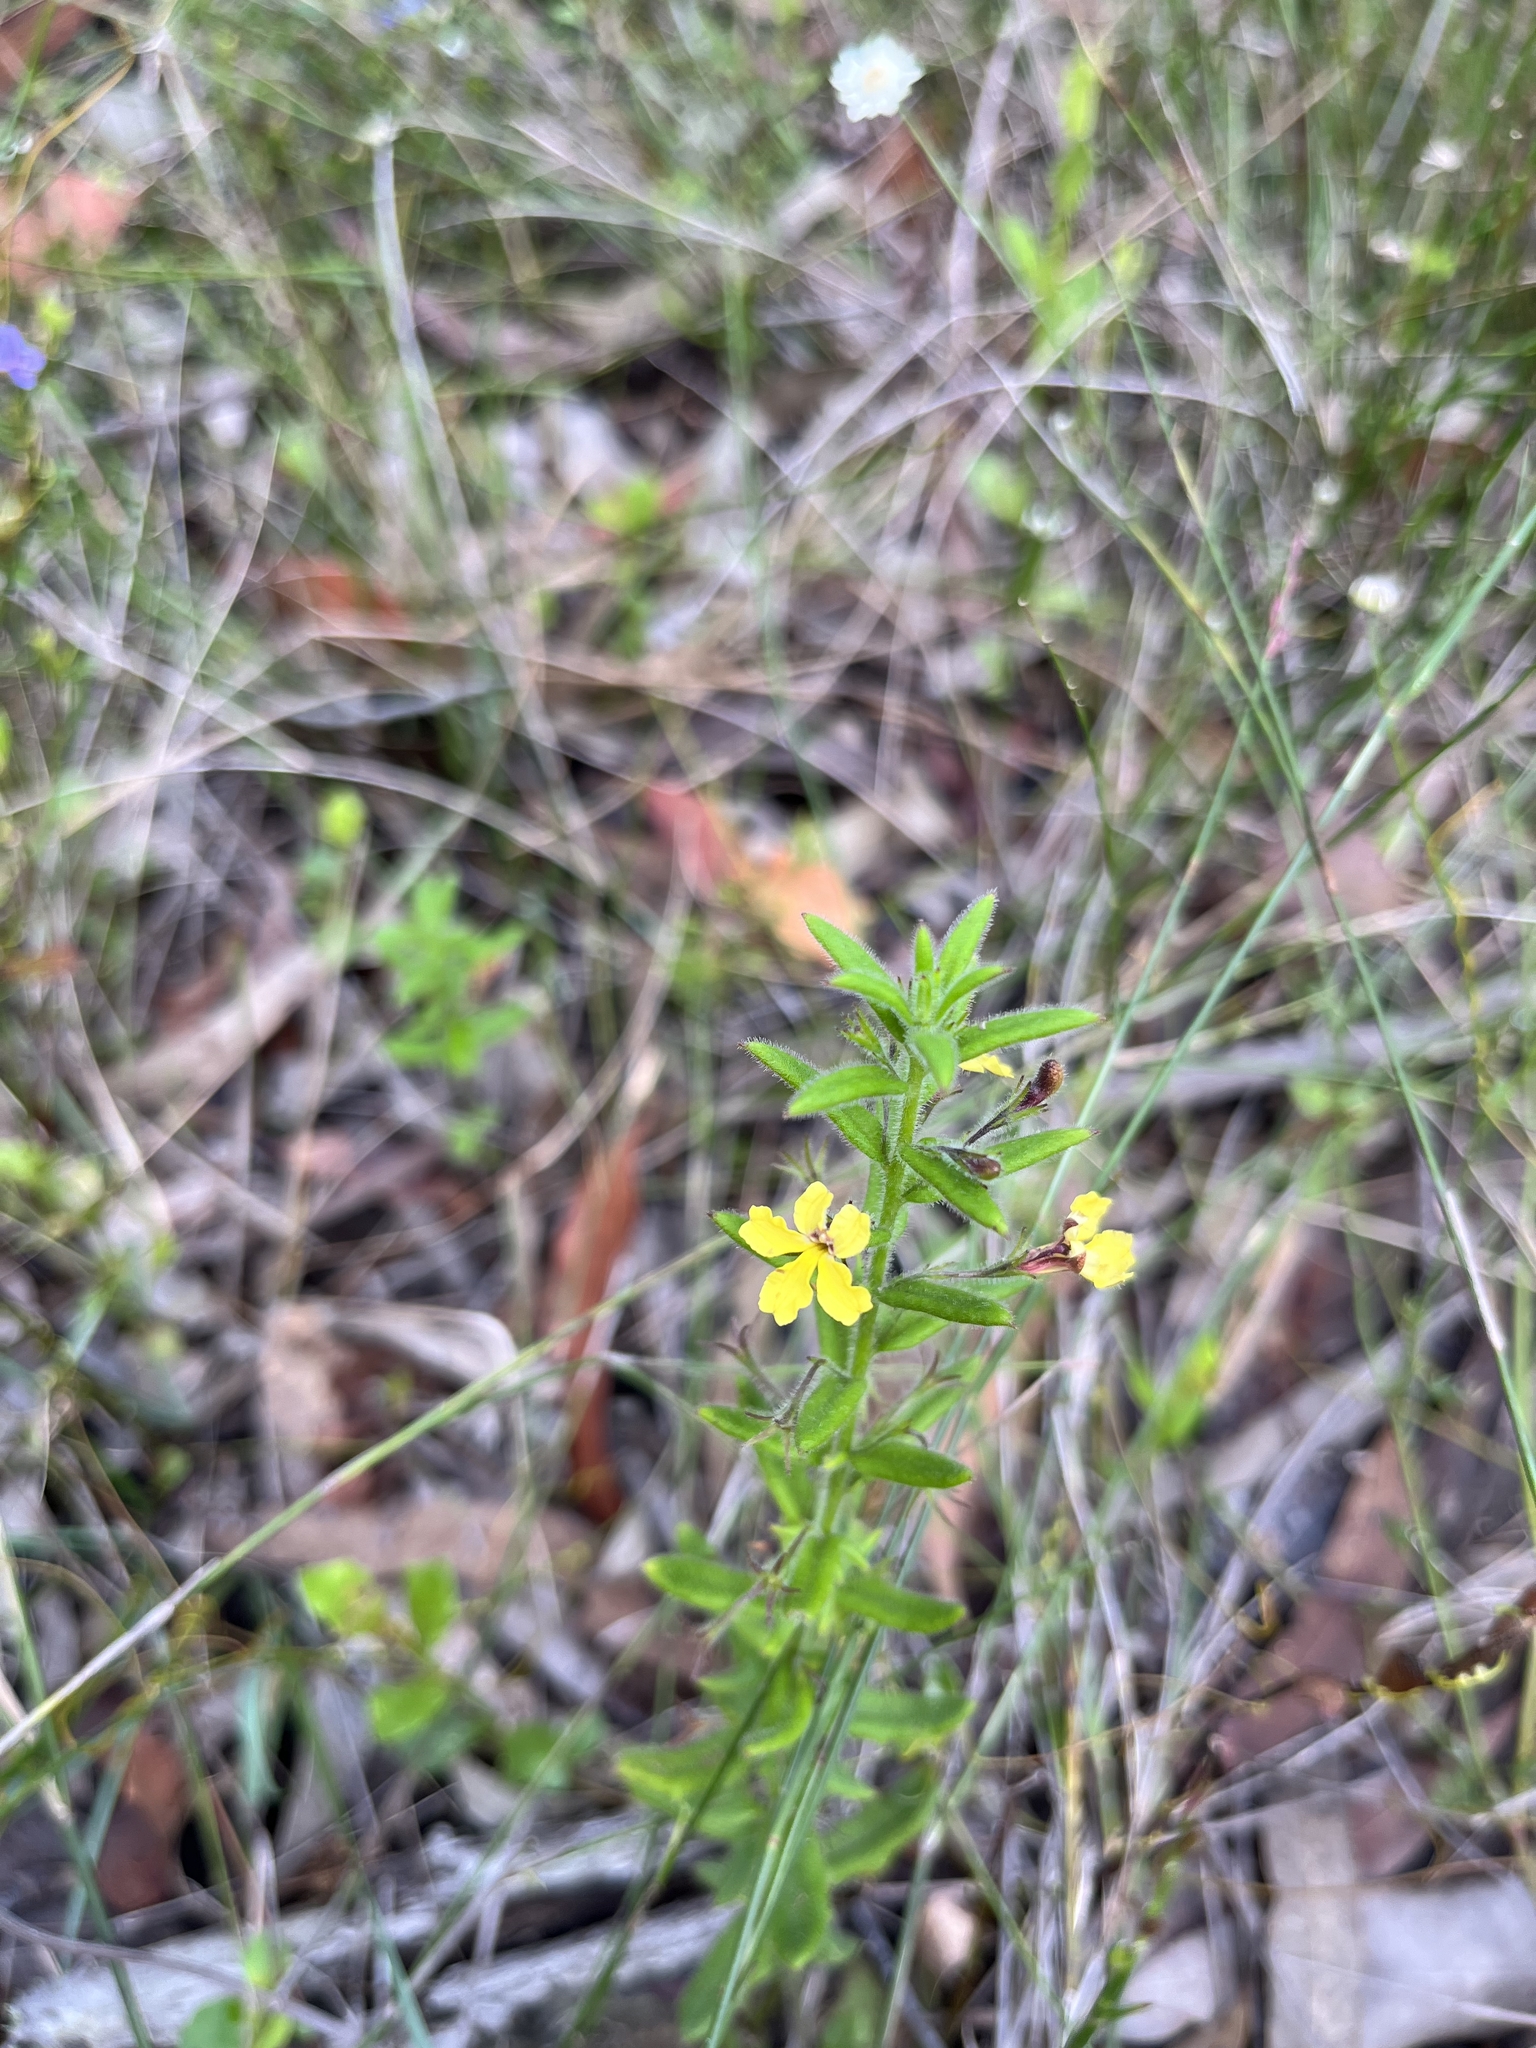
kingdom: Plantae
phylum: Tracheophyta
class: Magnoliopsida
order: Asterales
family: Goodeniaceae
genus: Goodenia
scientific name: Goodenia heterophylla
